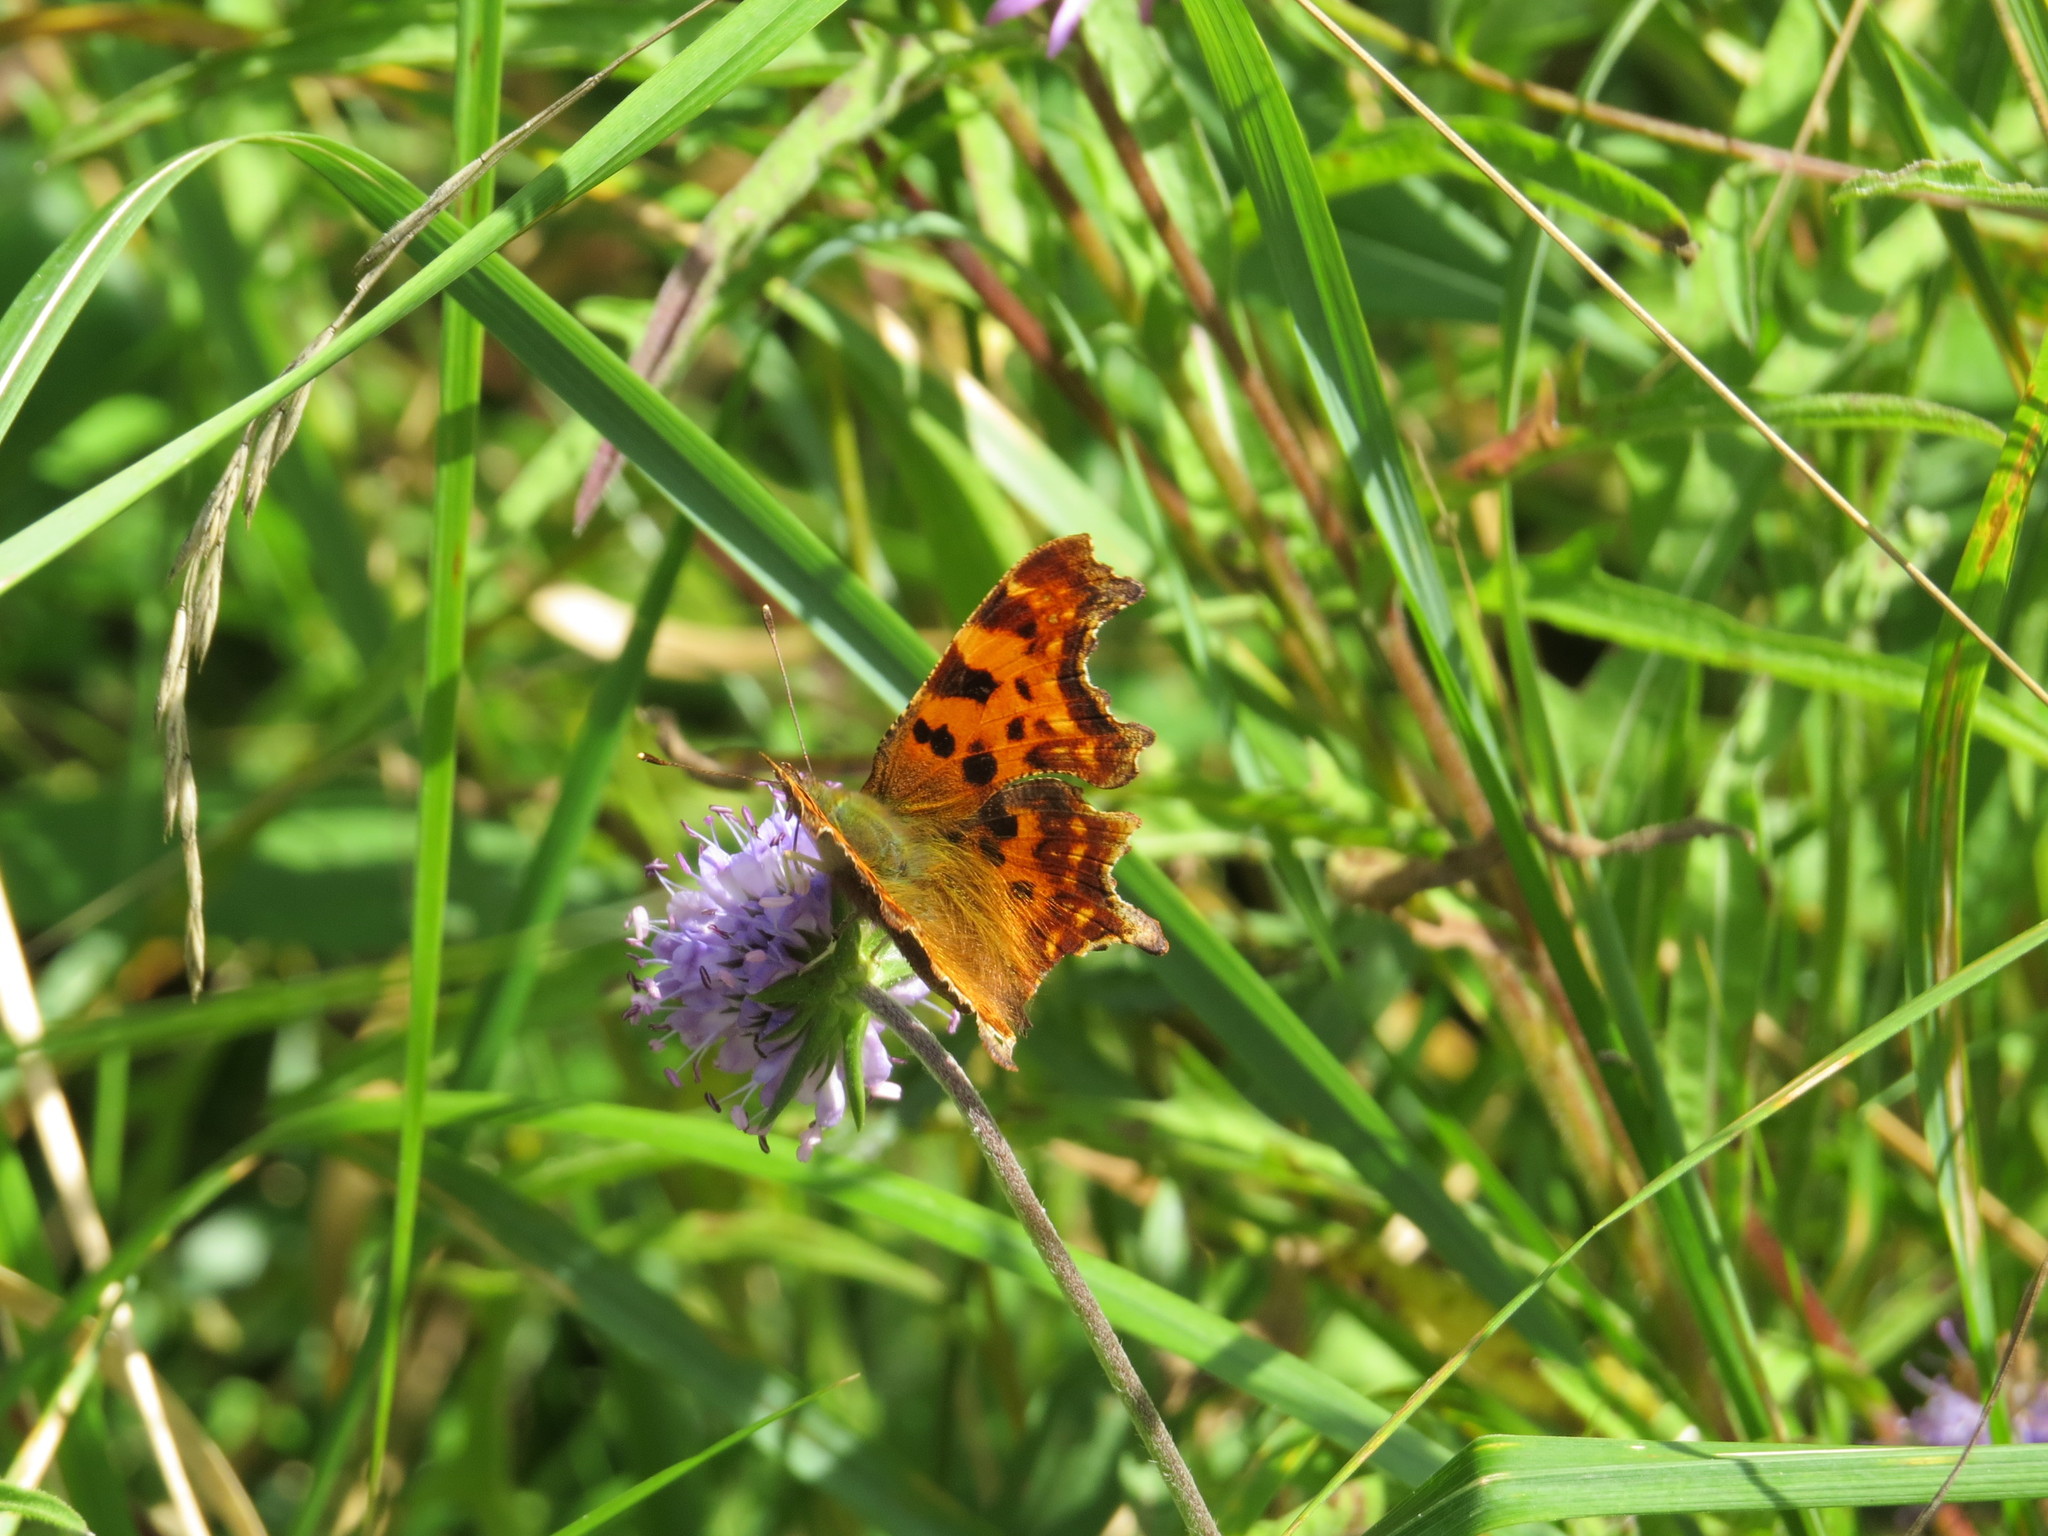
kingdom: Animalia
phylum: Arthropoda
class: Insecta
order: Lepidoptera
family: Nymphalidae
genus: Polygonia
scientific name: Polygonia c-album
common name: Comma
